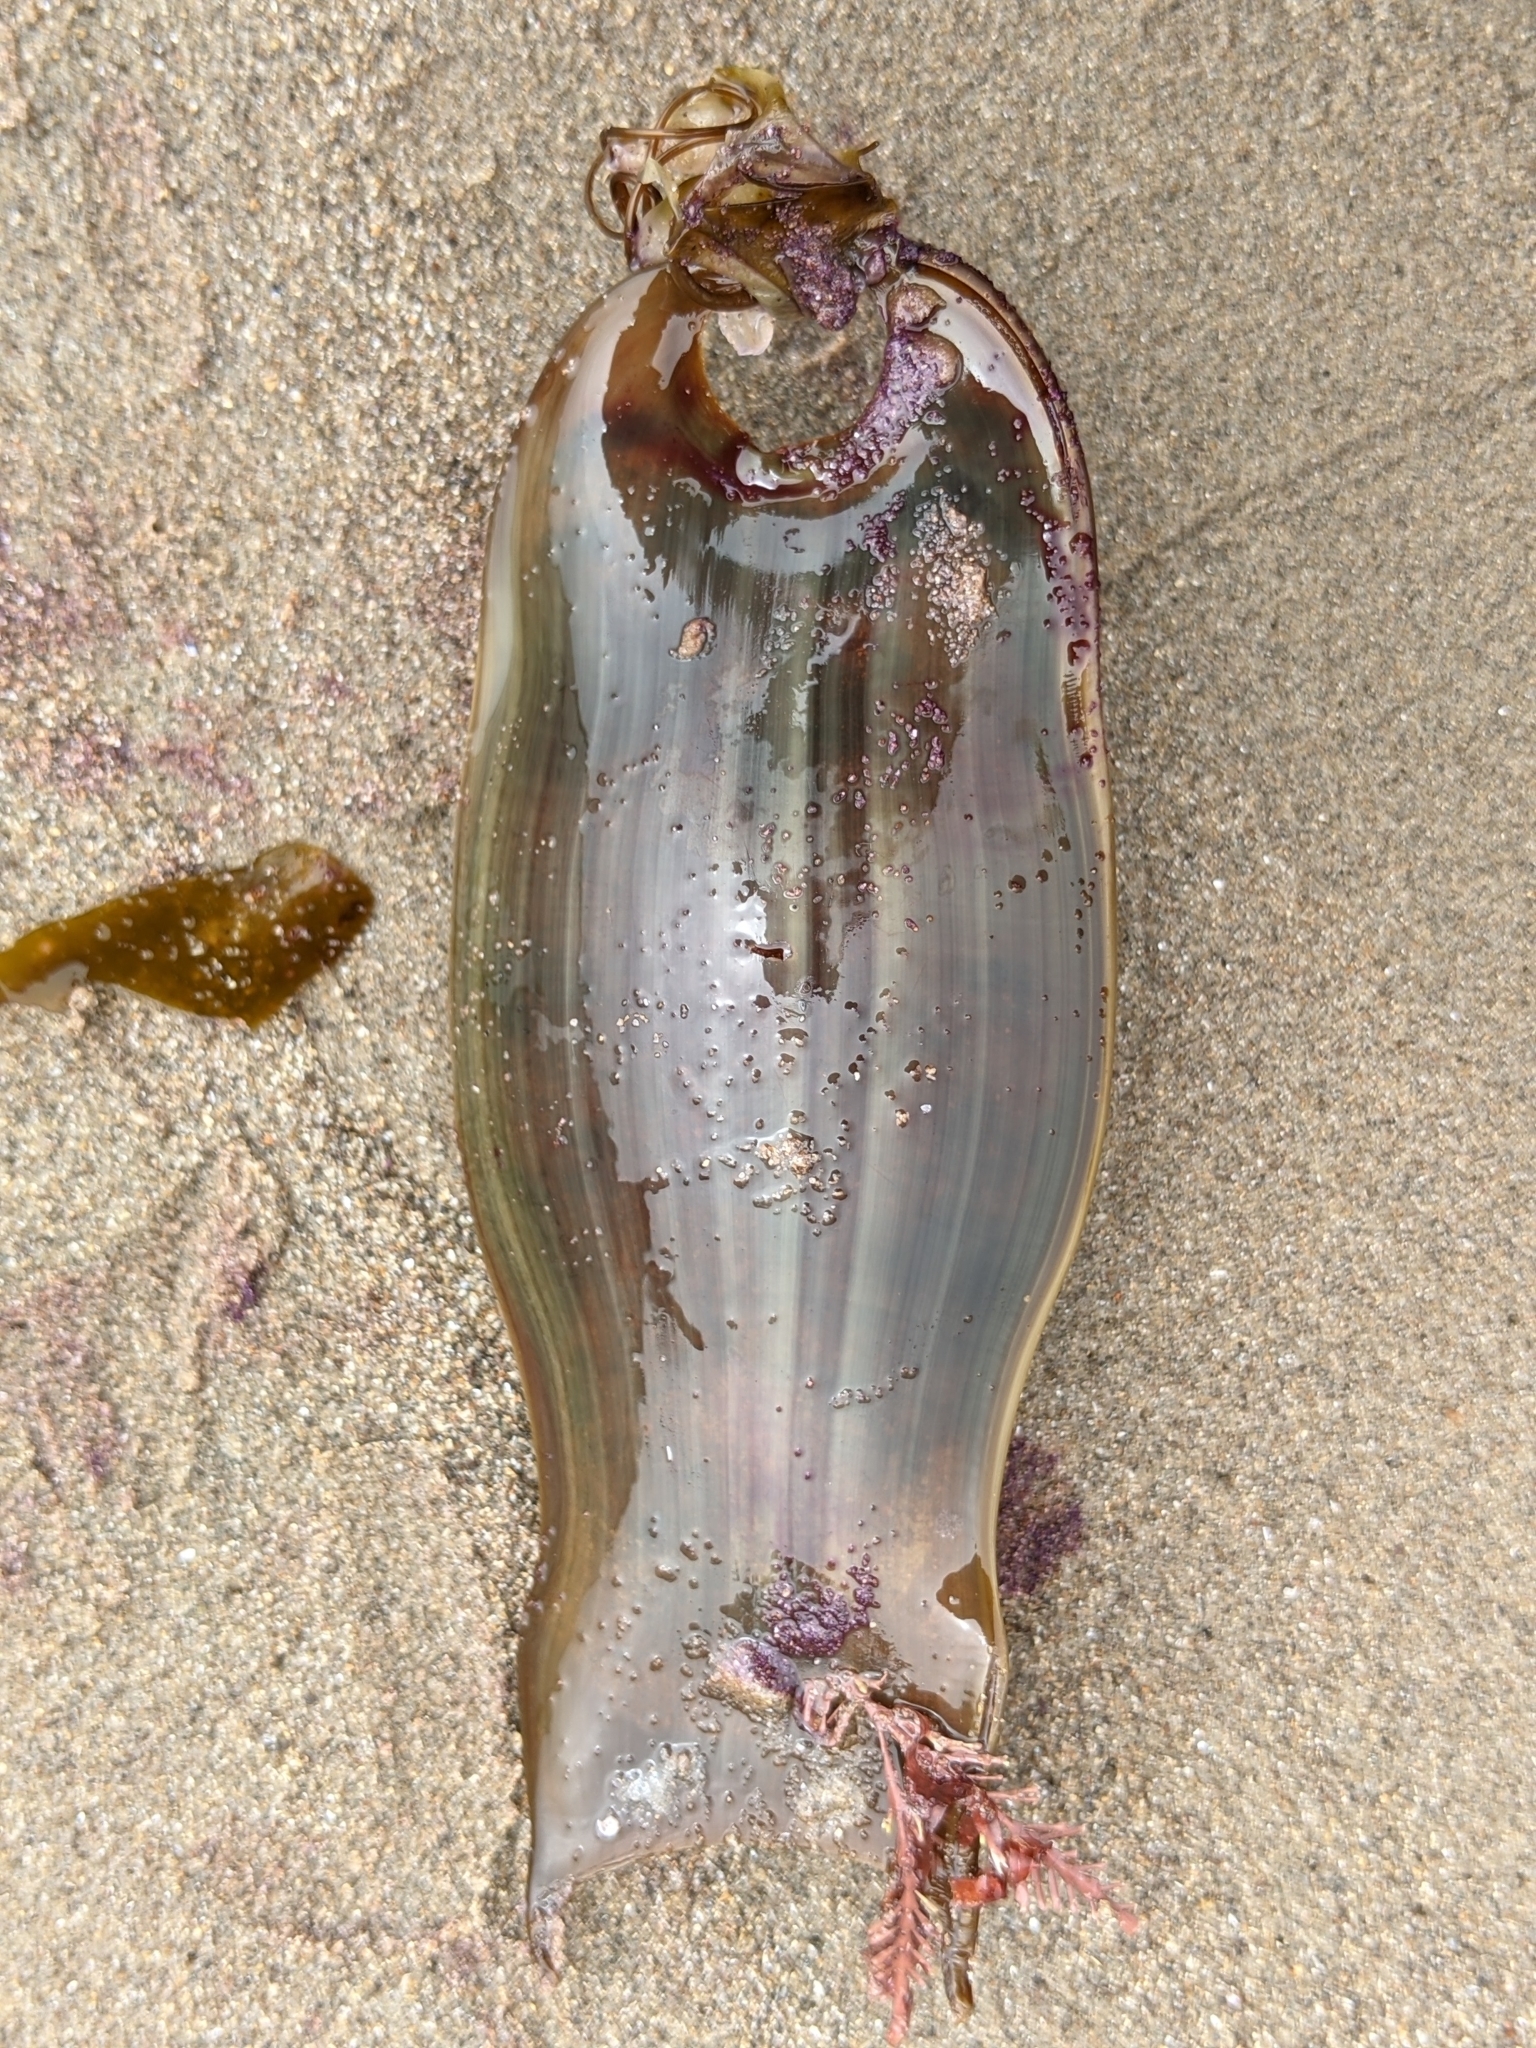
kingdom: Animalia
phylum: Chordata
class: Elasmobranchii
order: Carcharhiniformes
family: Scyliorhinidae
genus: Cephaloscyllium
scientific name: Cephaloscyllium ventriosum
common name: Swell shark
